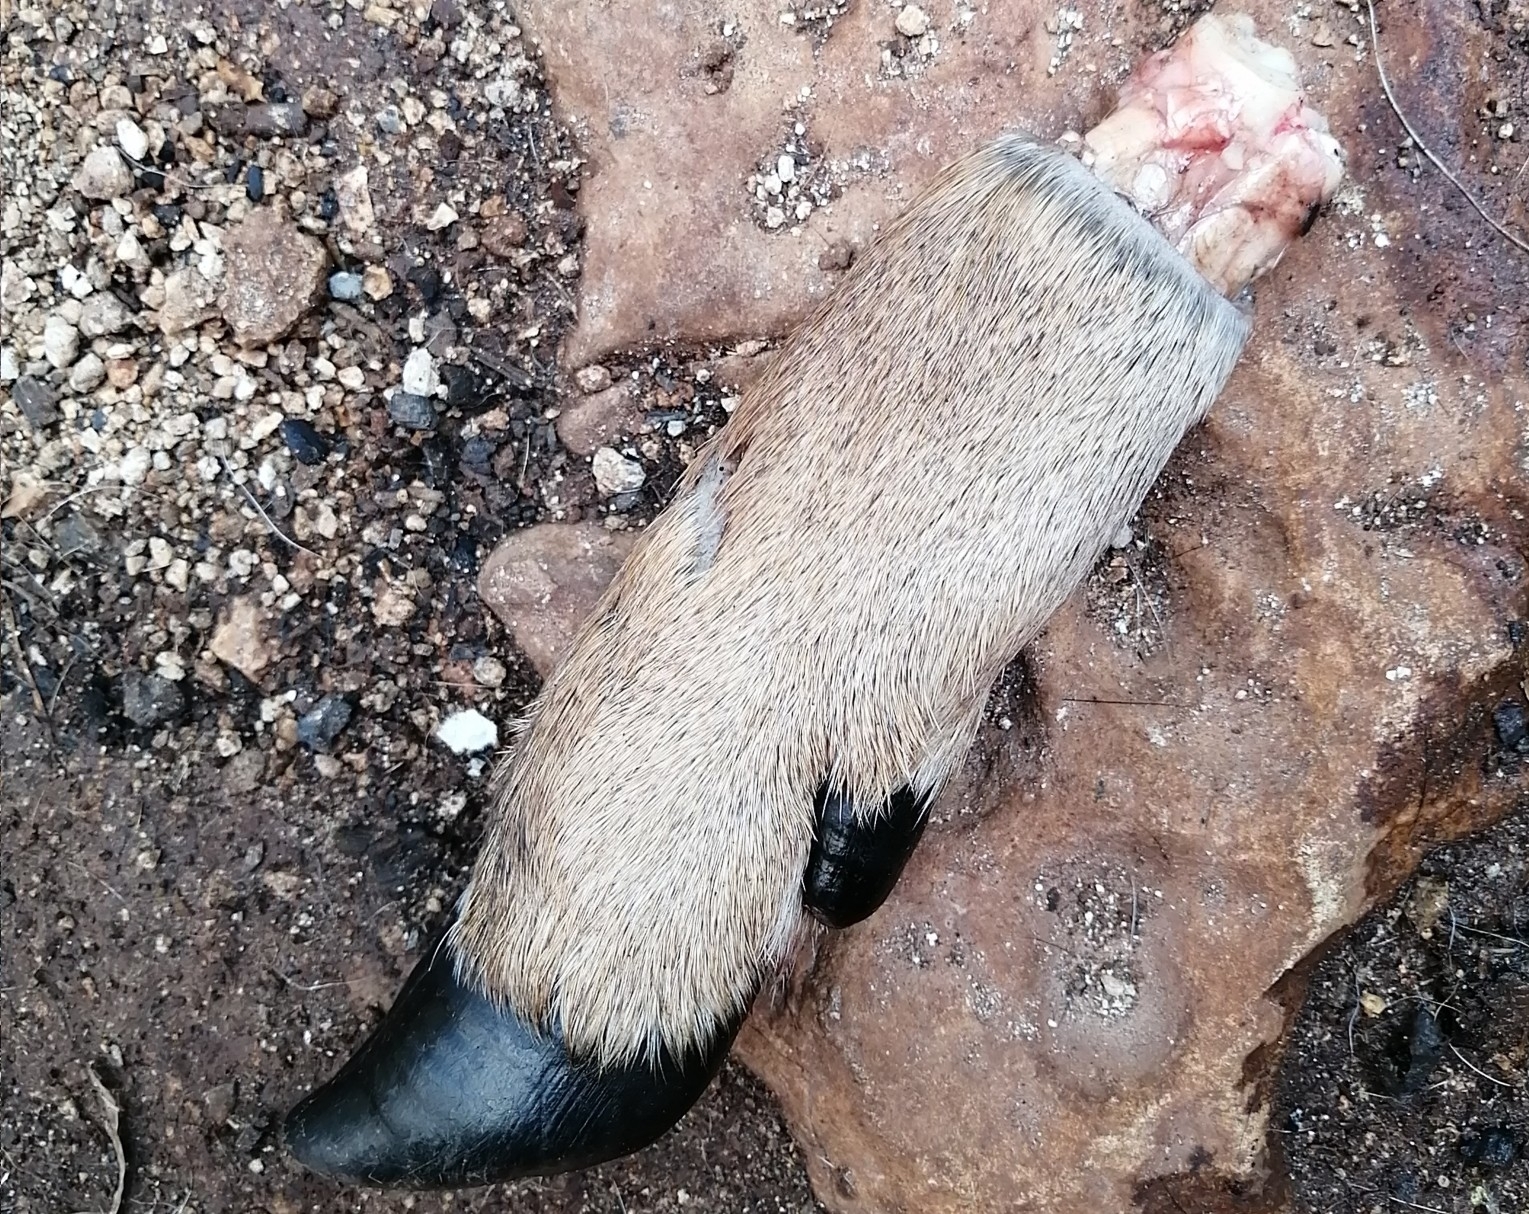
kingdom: Animalia
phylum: Chordata
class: Mammalia
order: Artiodactyla
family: Cervidae
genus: Odocoileus
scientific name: Odocoileus virginianus
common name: White-tailed deer
